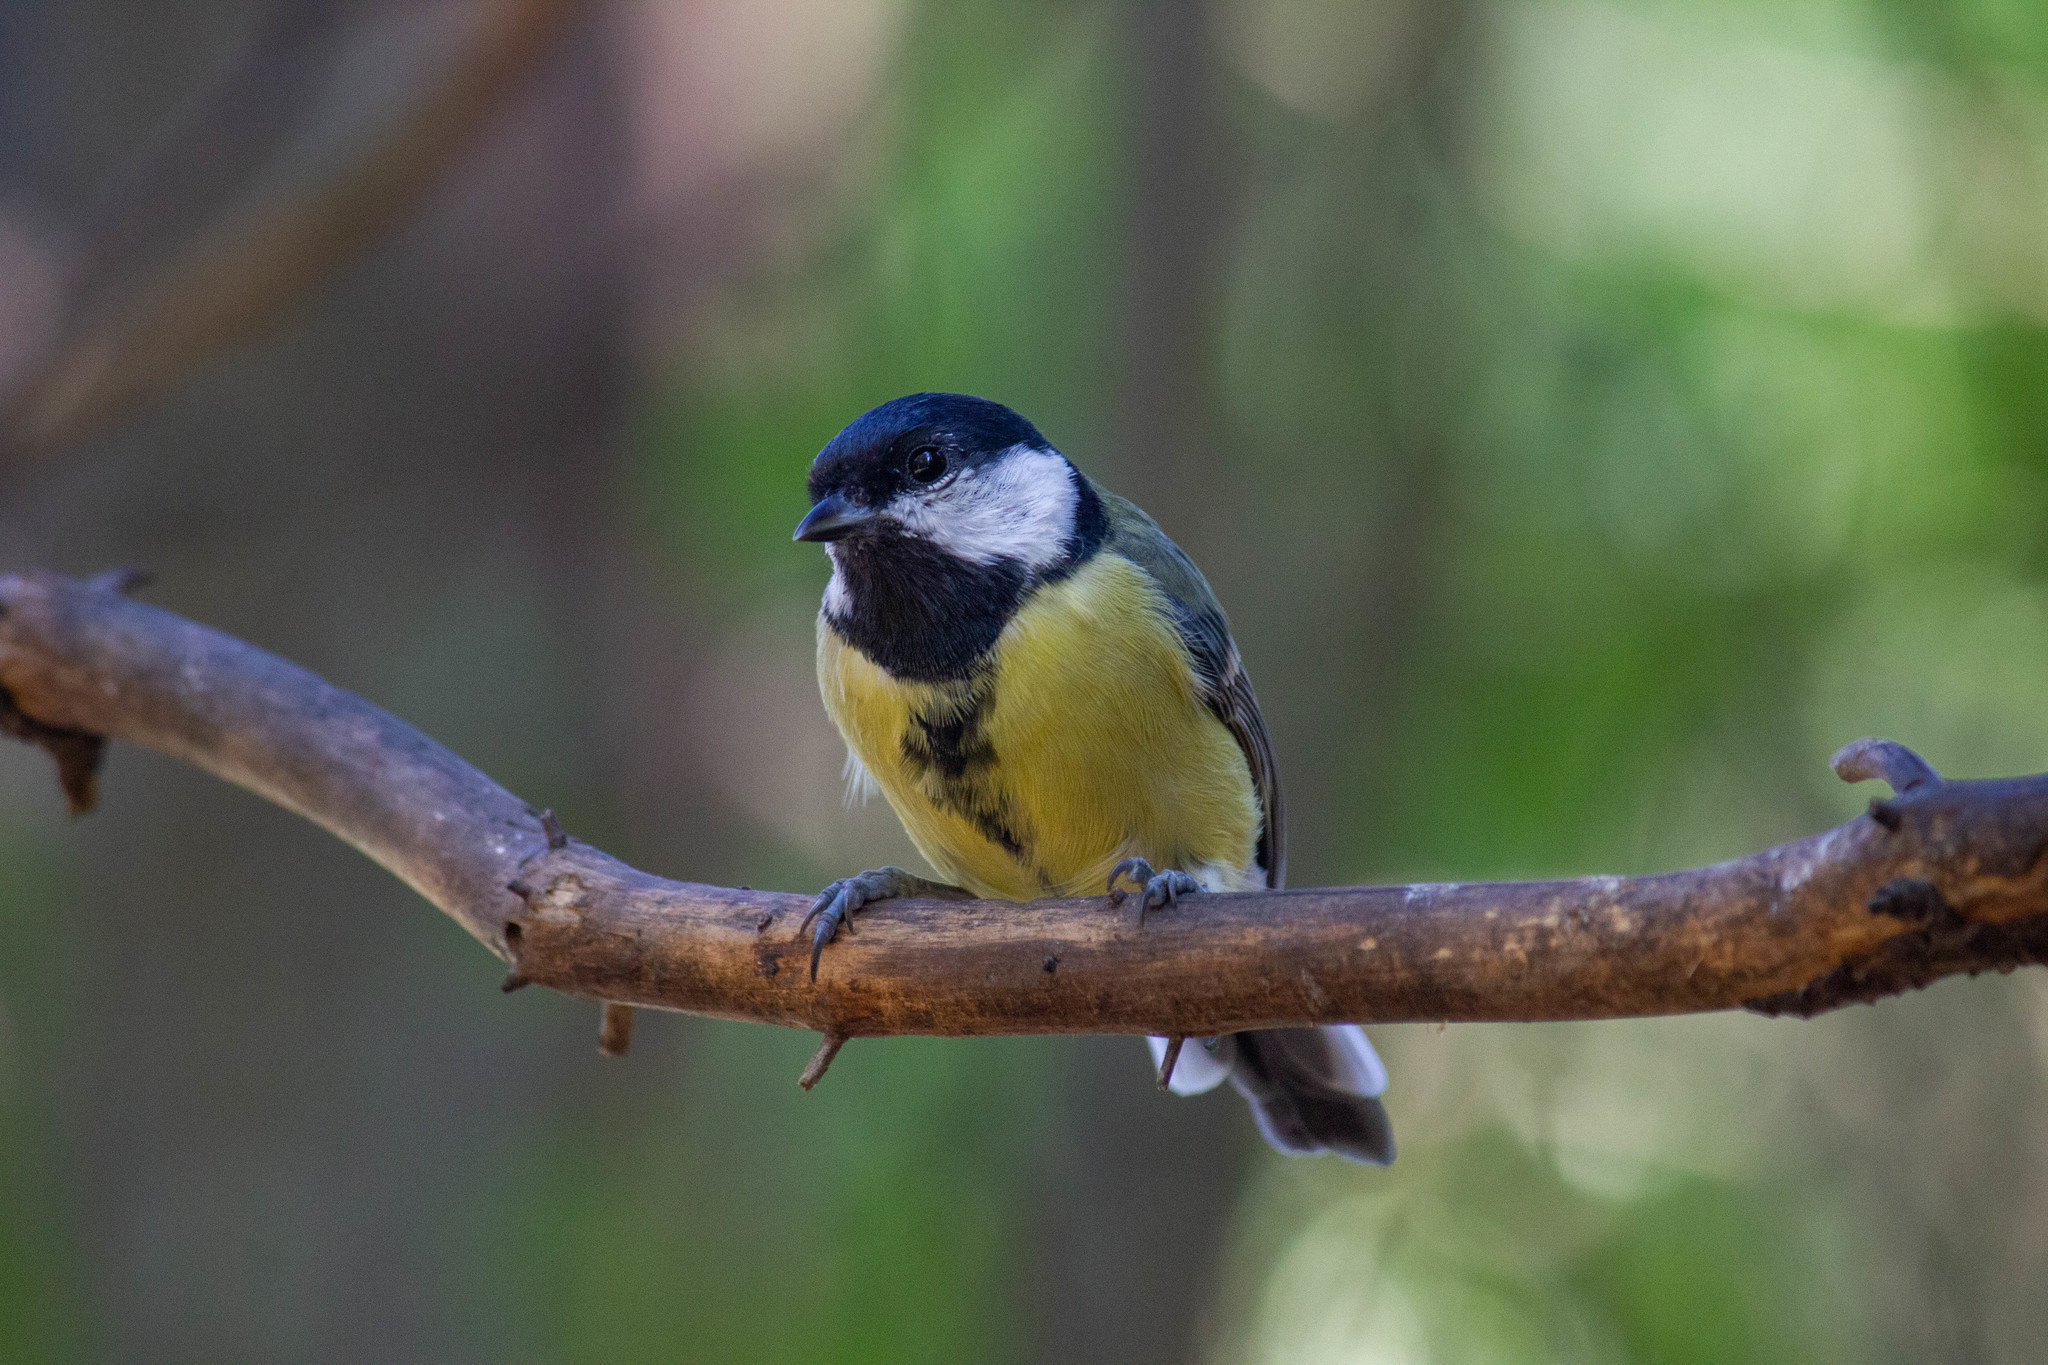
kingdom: Animalia
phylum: Chordata
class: Aves
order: Passeriformes
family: Paridae
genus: Parus
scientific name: Parus major
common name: Great tit
